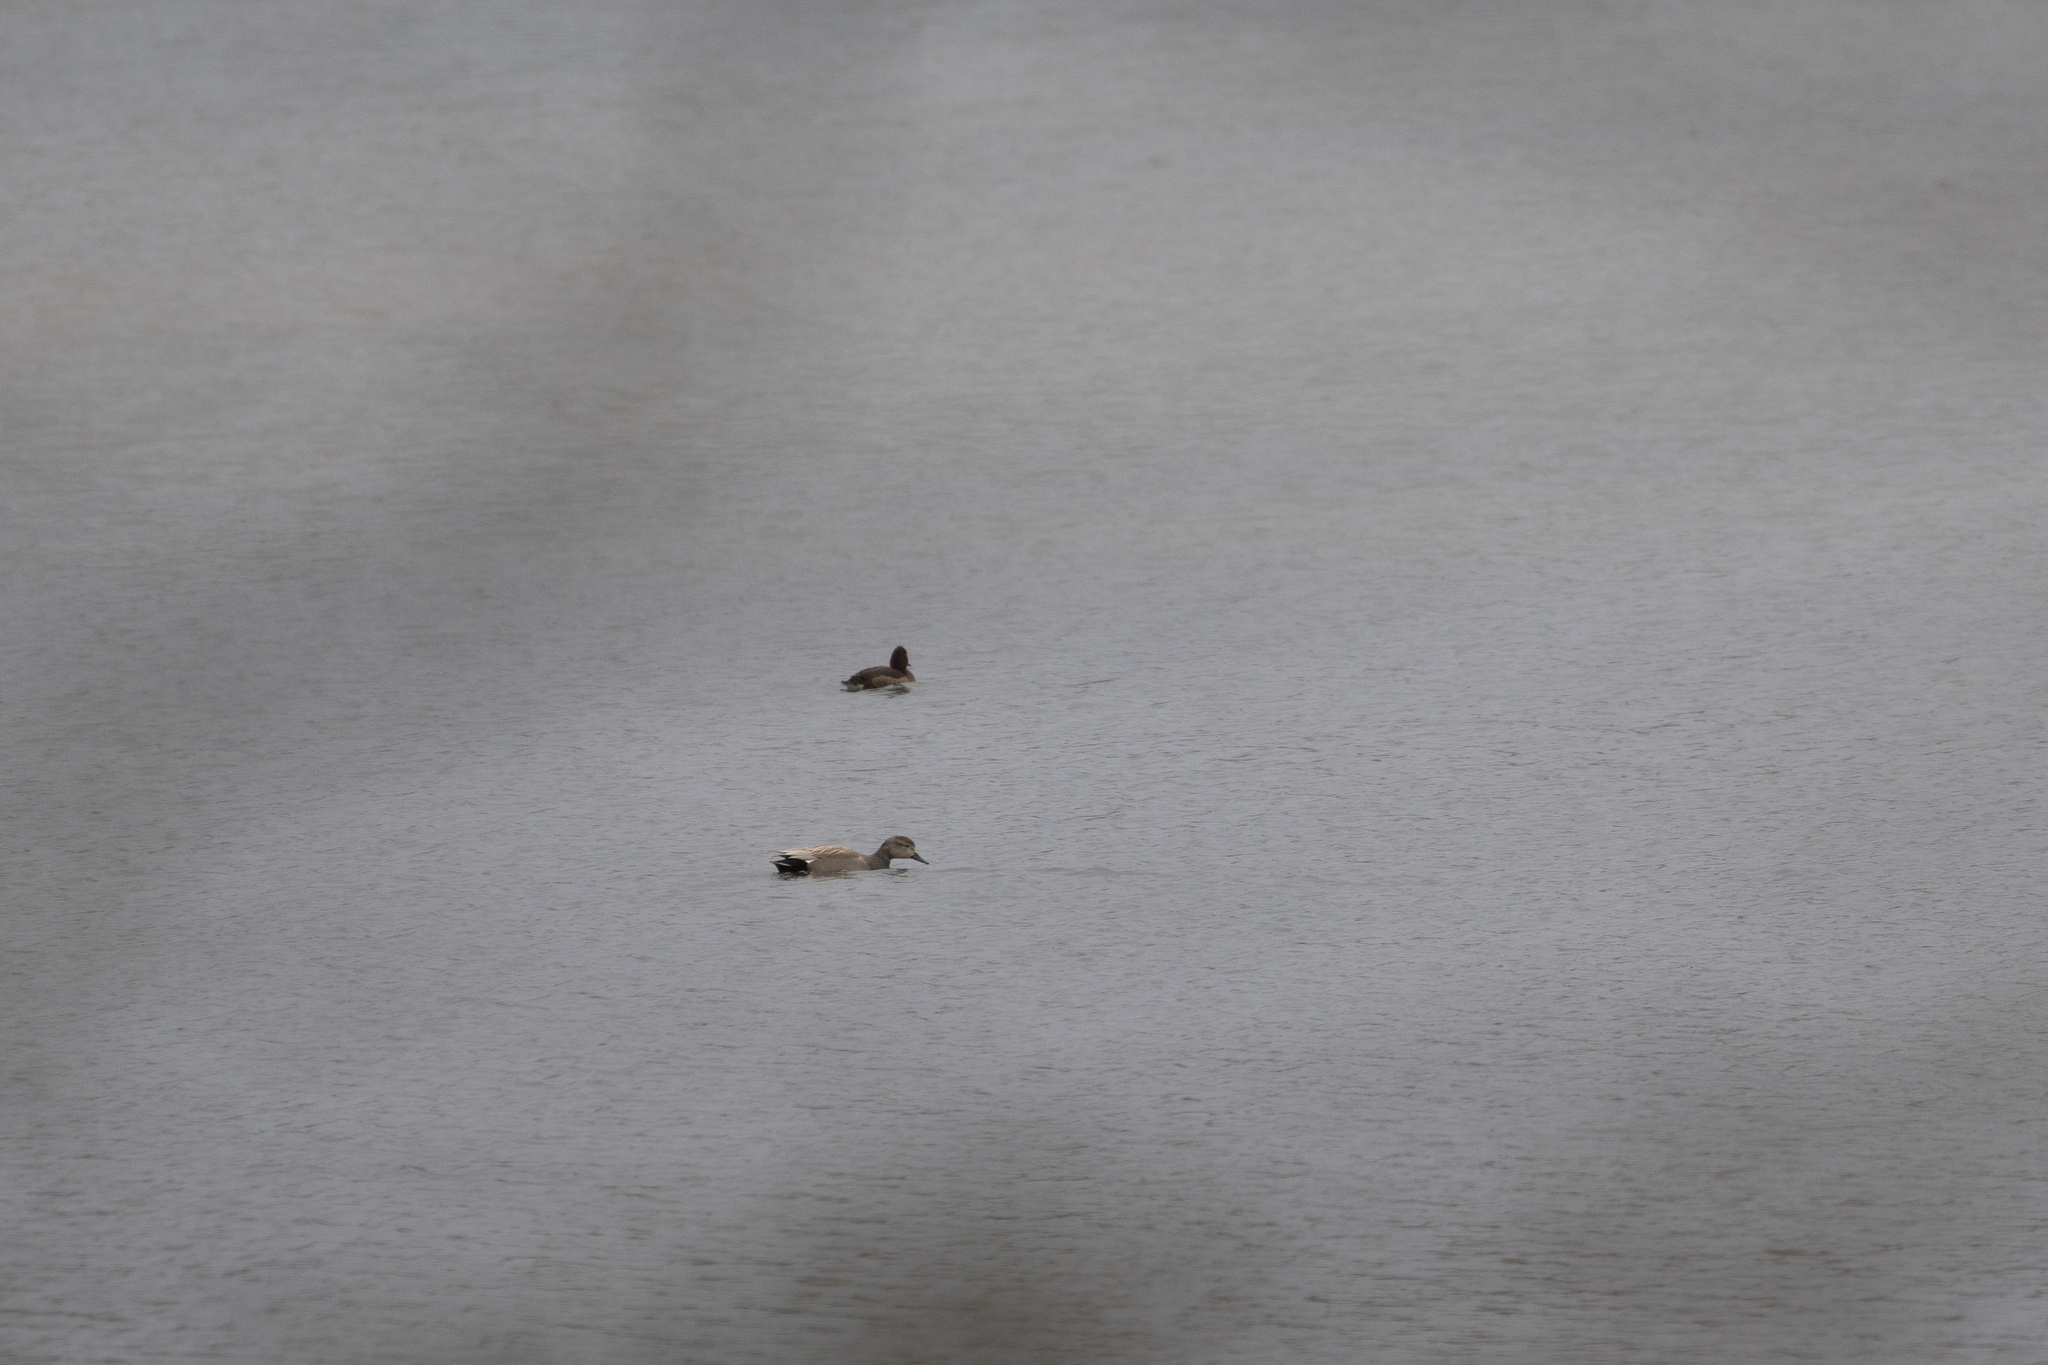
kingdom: Animalia
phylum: Chordata
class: Aves
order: Anseriformes
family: Anatidae
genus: Mareca
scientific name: Mareca strepera
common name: Gadwall
